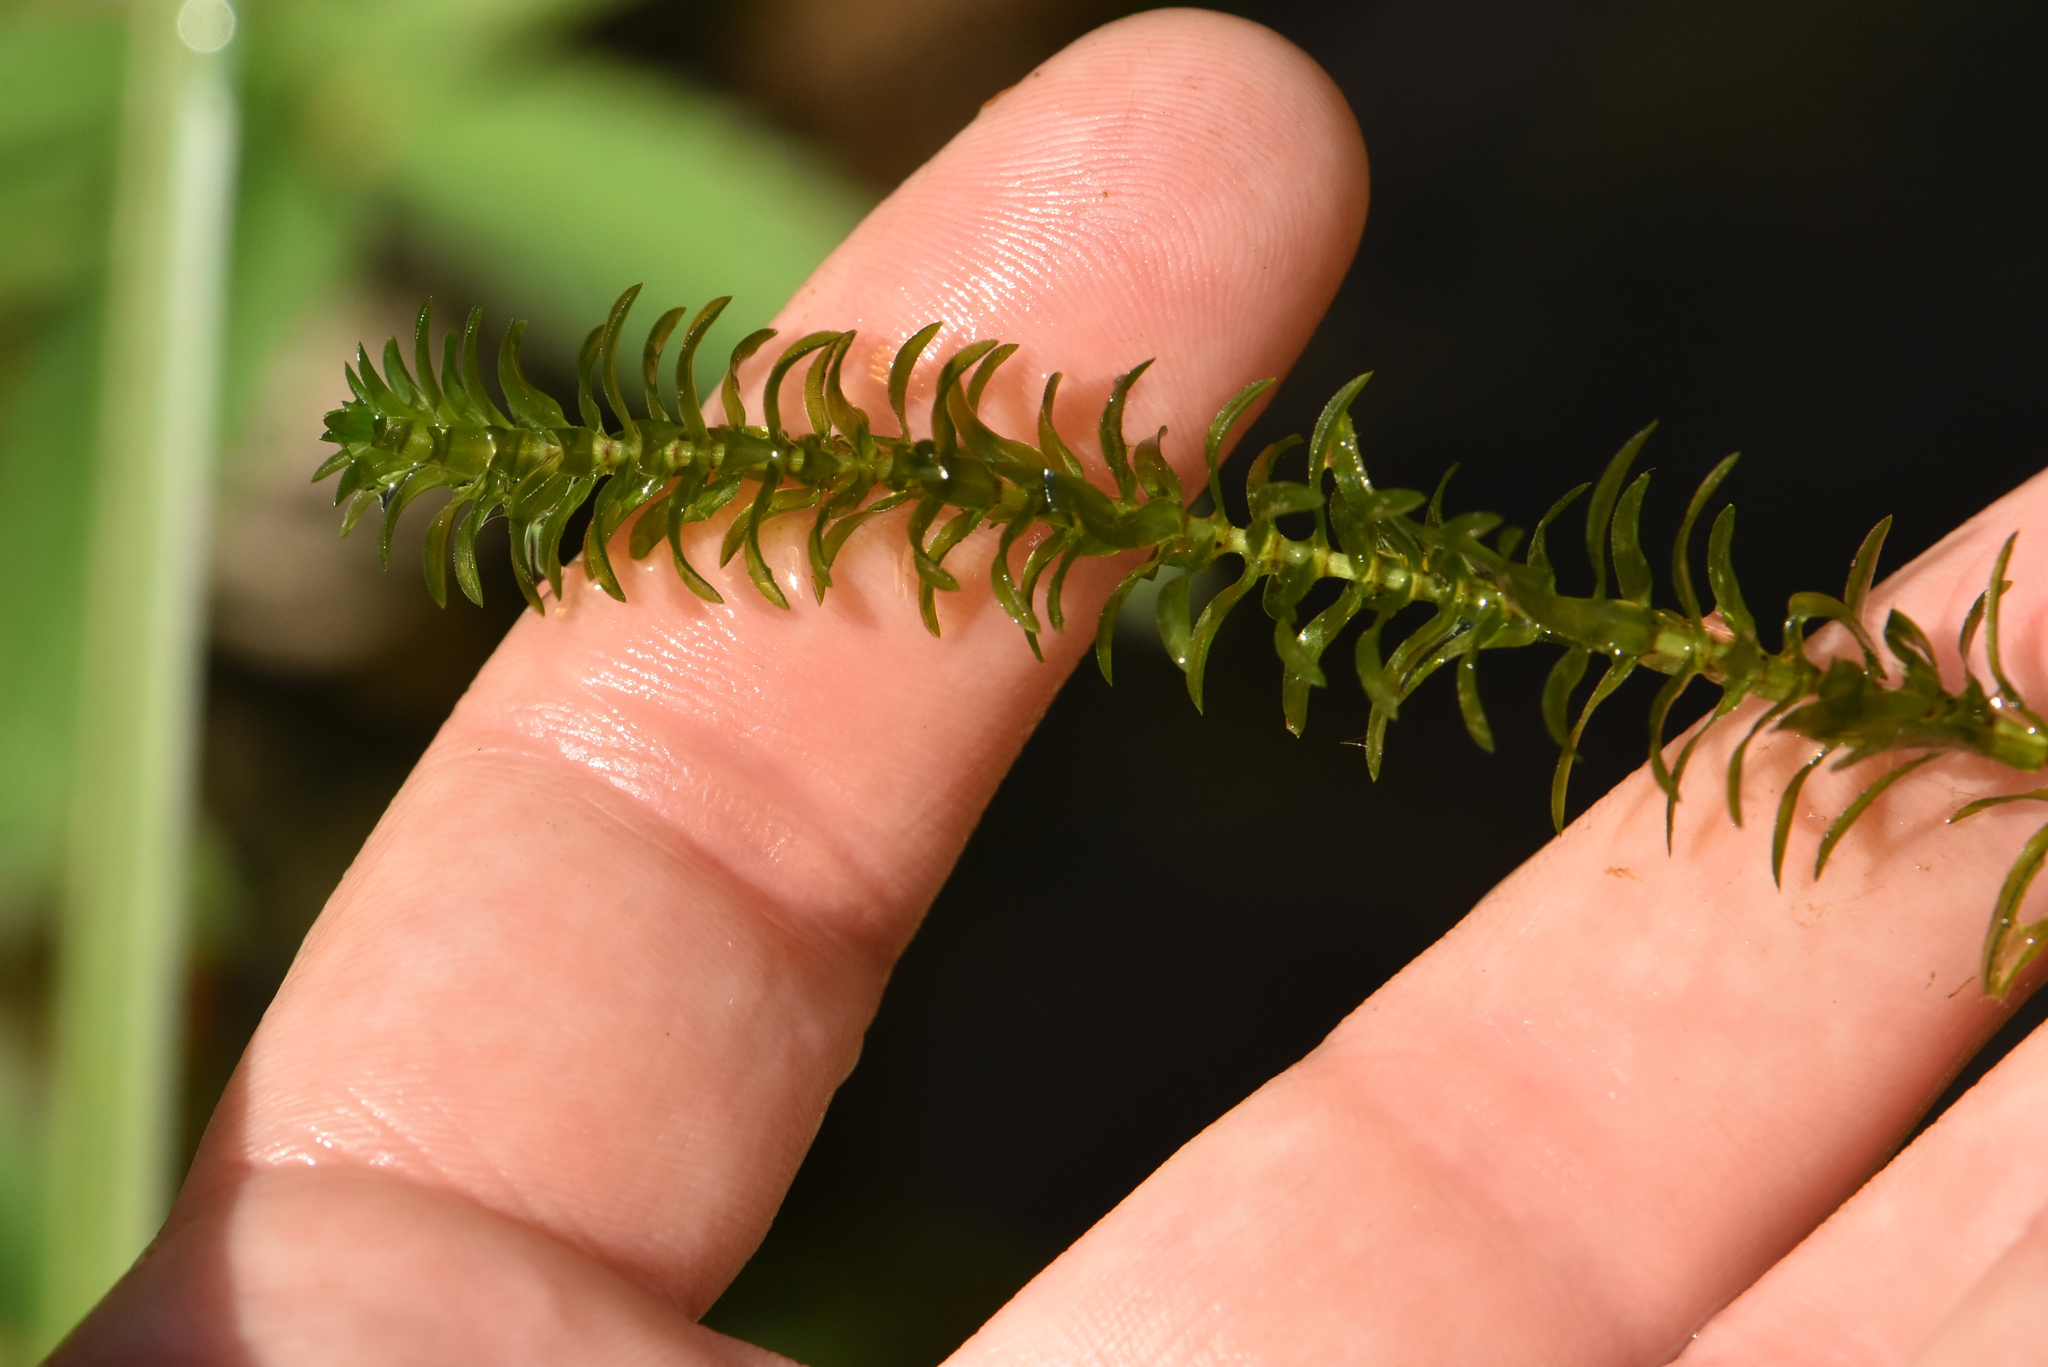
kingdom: Plantae
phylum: Tracheophyta
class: Liliopsida
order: Alismatales
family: Hydrocharitaceae
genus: Elodea
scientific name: Elodea canadensis
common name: Canadian waterweed
